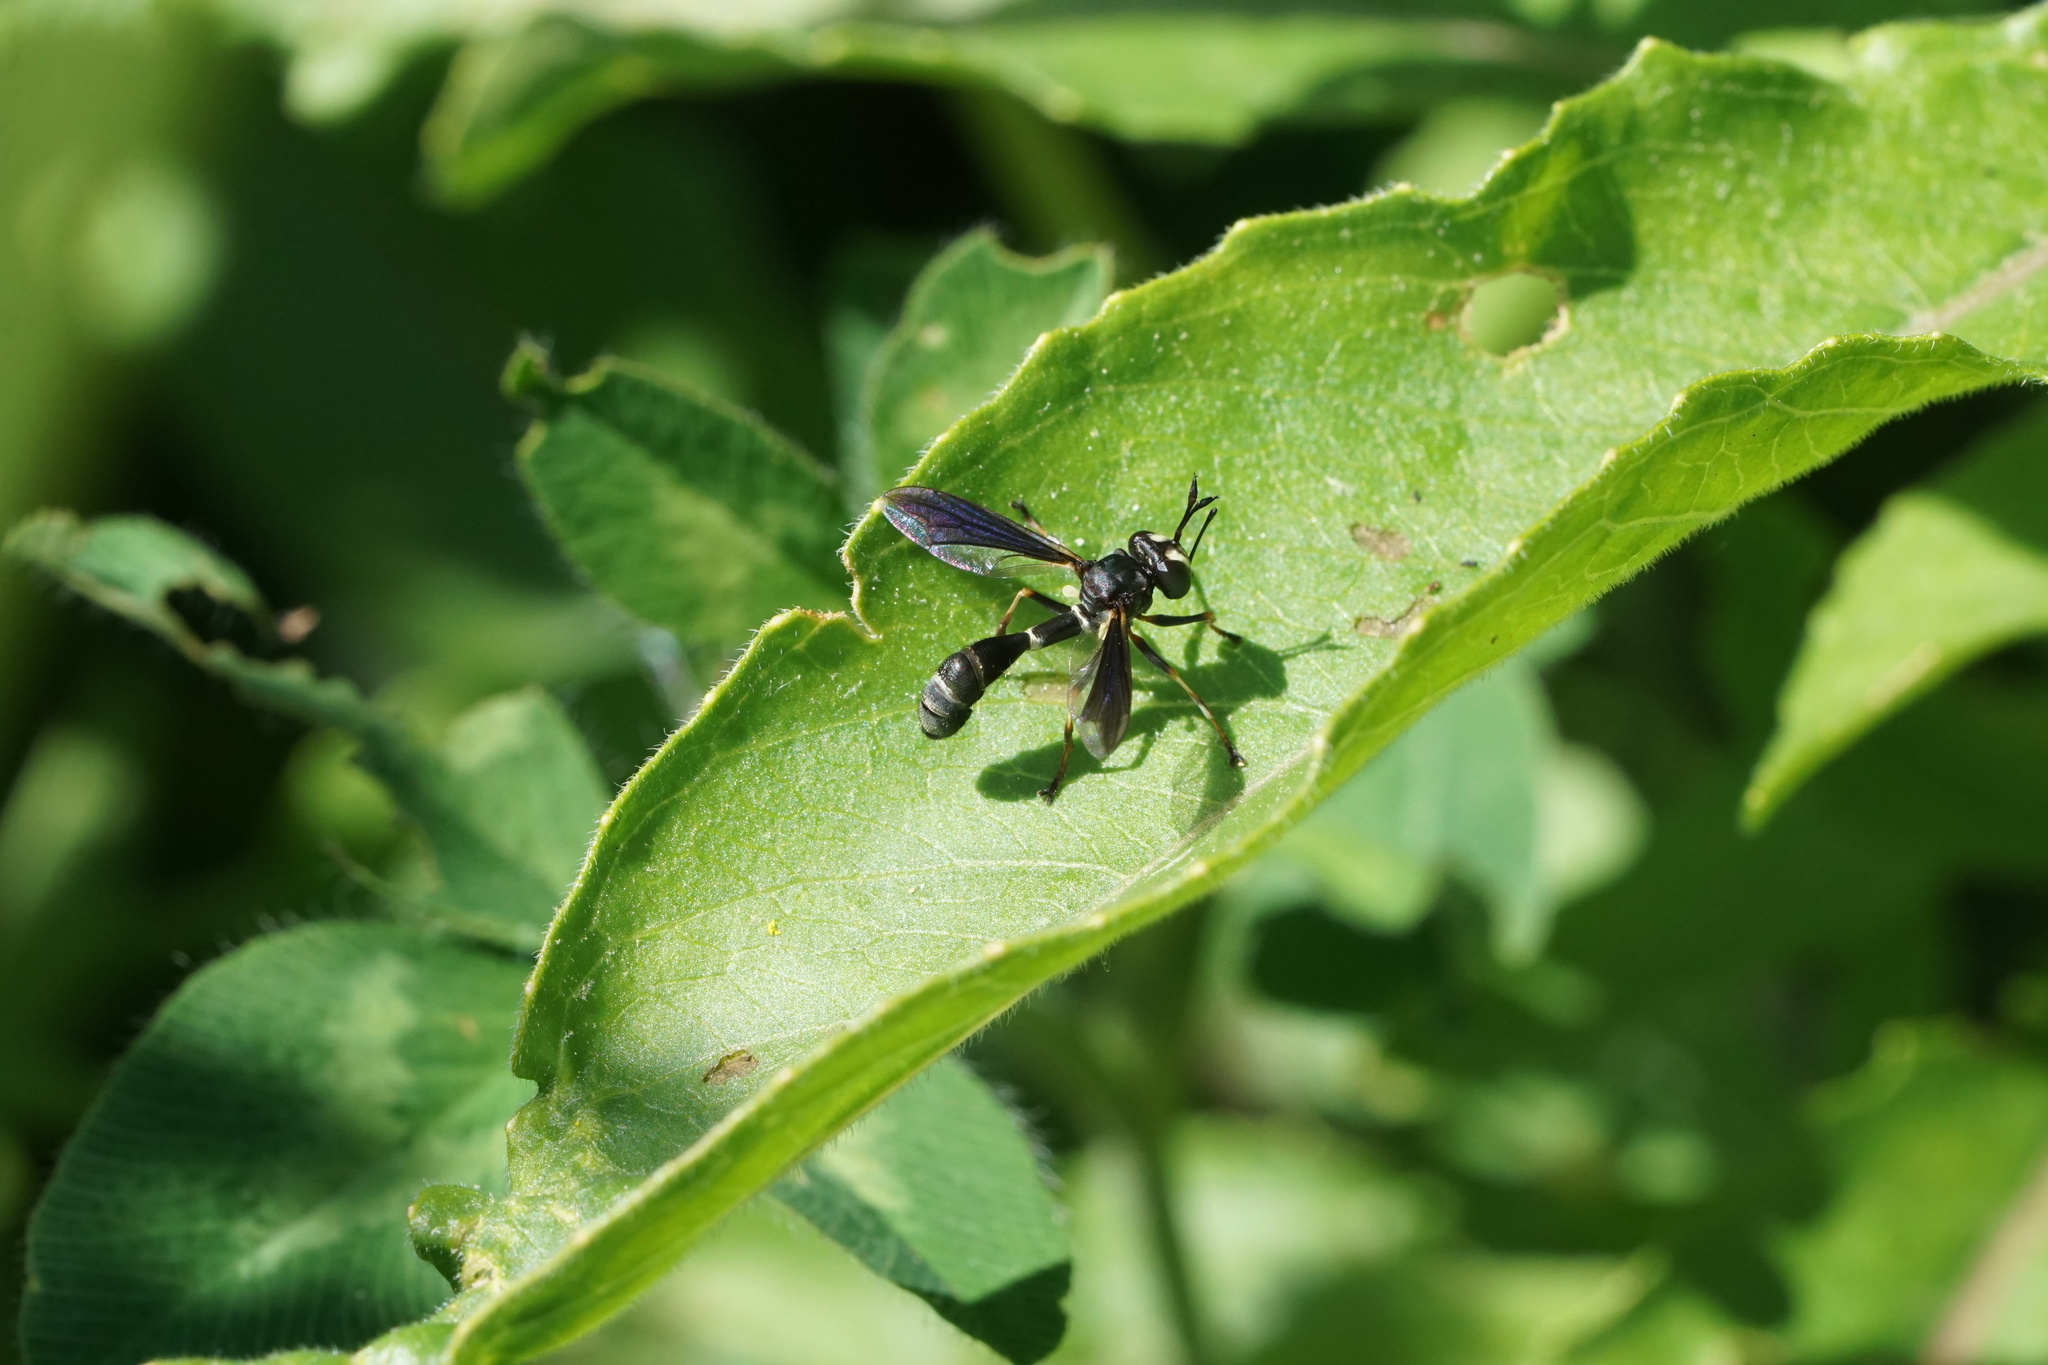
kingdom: Animalia
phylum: Arthropoda
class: Insecta
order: Diptera
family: Conopidae
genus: Physocephala
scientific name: Physocephala tibialis
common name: Common eastern physocephala
